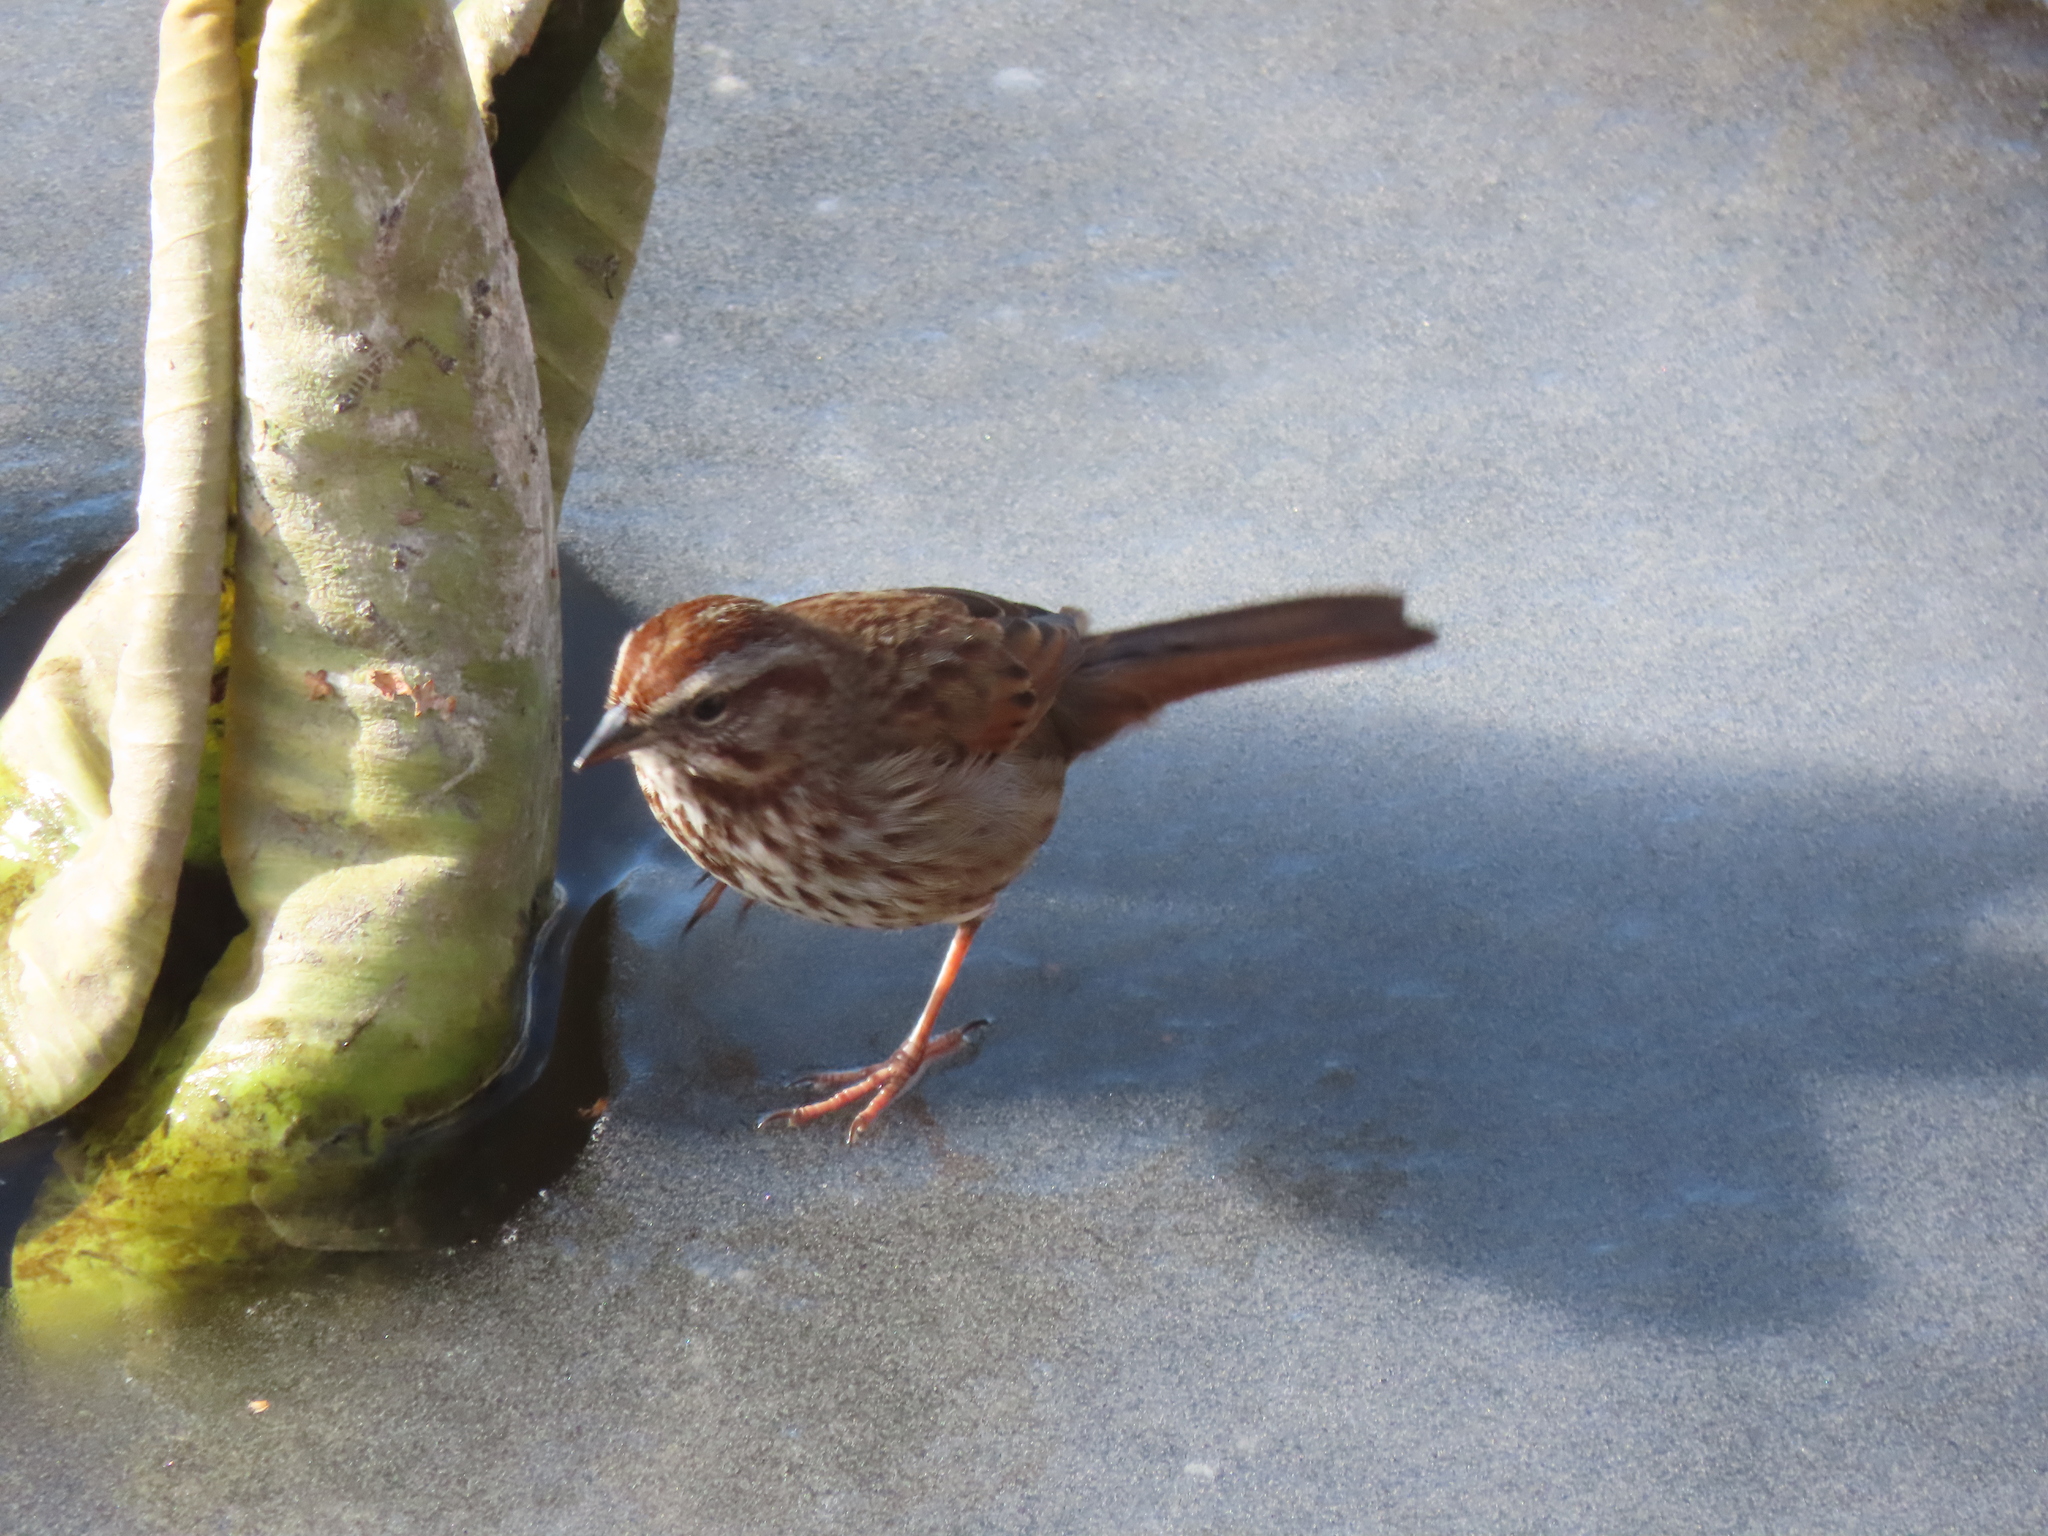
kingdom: Animalia
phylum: Chordata
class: Aves
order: Passeriformes
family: Passerellidae
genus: Melospiza
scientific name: Melospiza melodia
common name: Song sparrow
